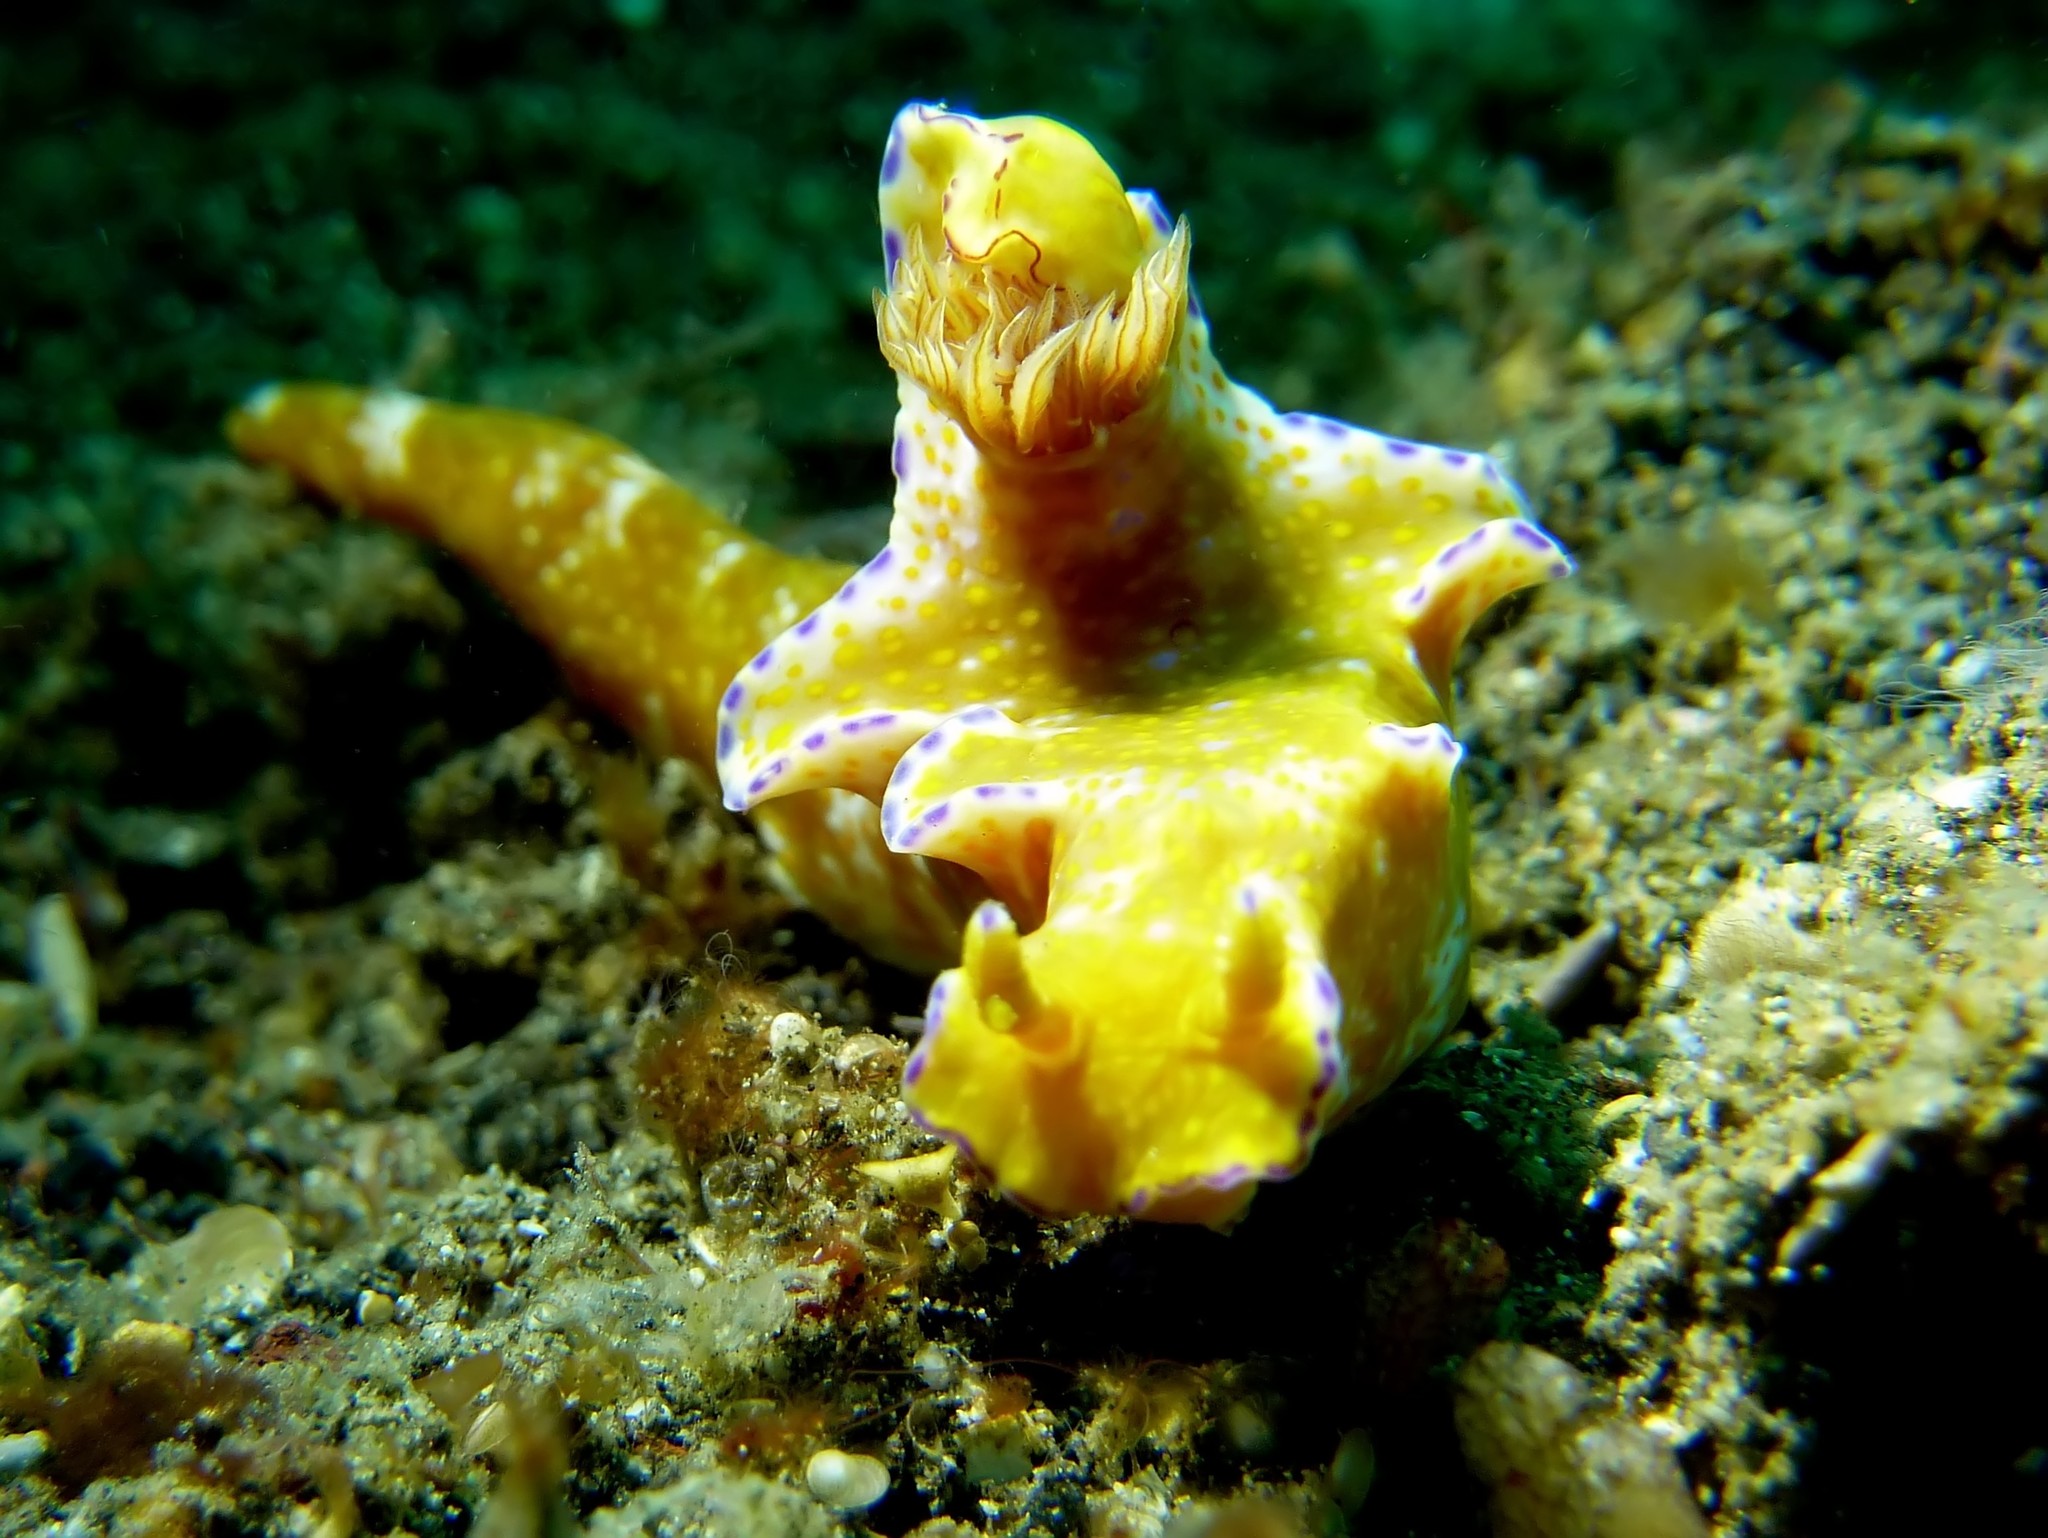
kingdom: Animalia
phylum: Mollusca
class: Gastropoda
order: Nudibranchia
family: Chromodorididae
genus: Ceratosoma
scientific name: Ceratosoma tenue
